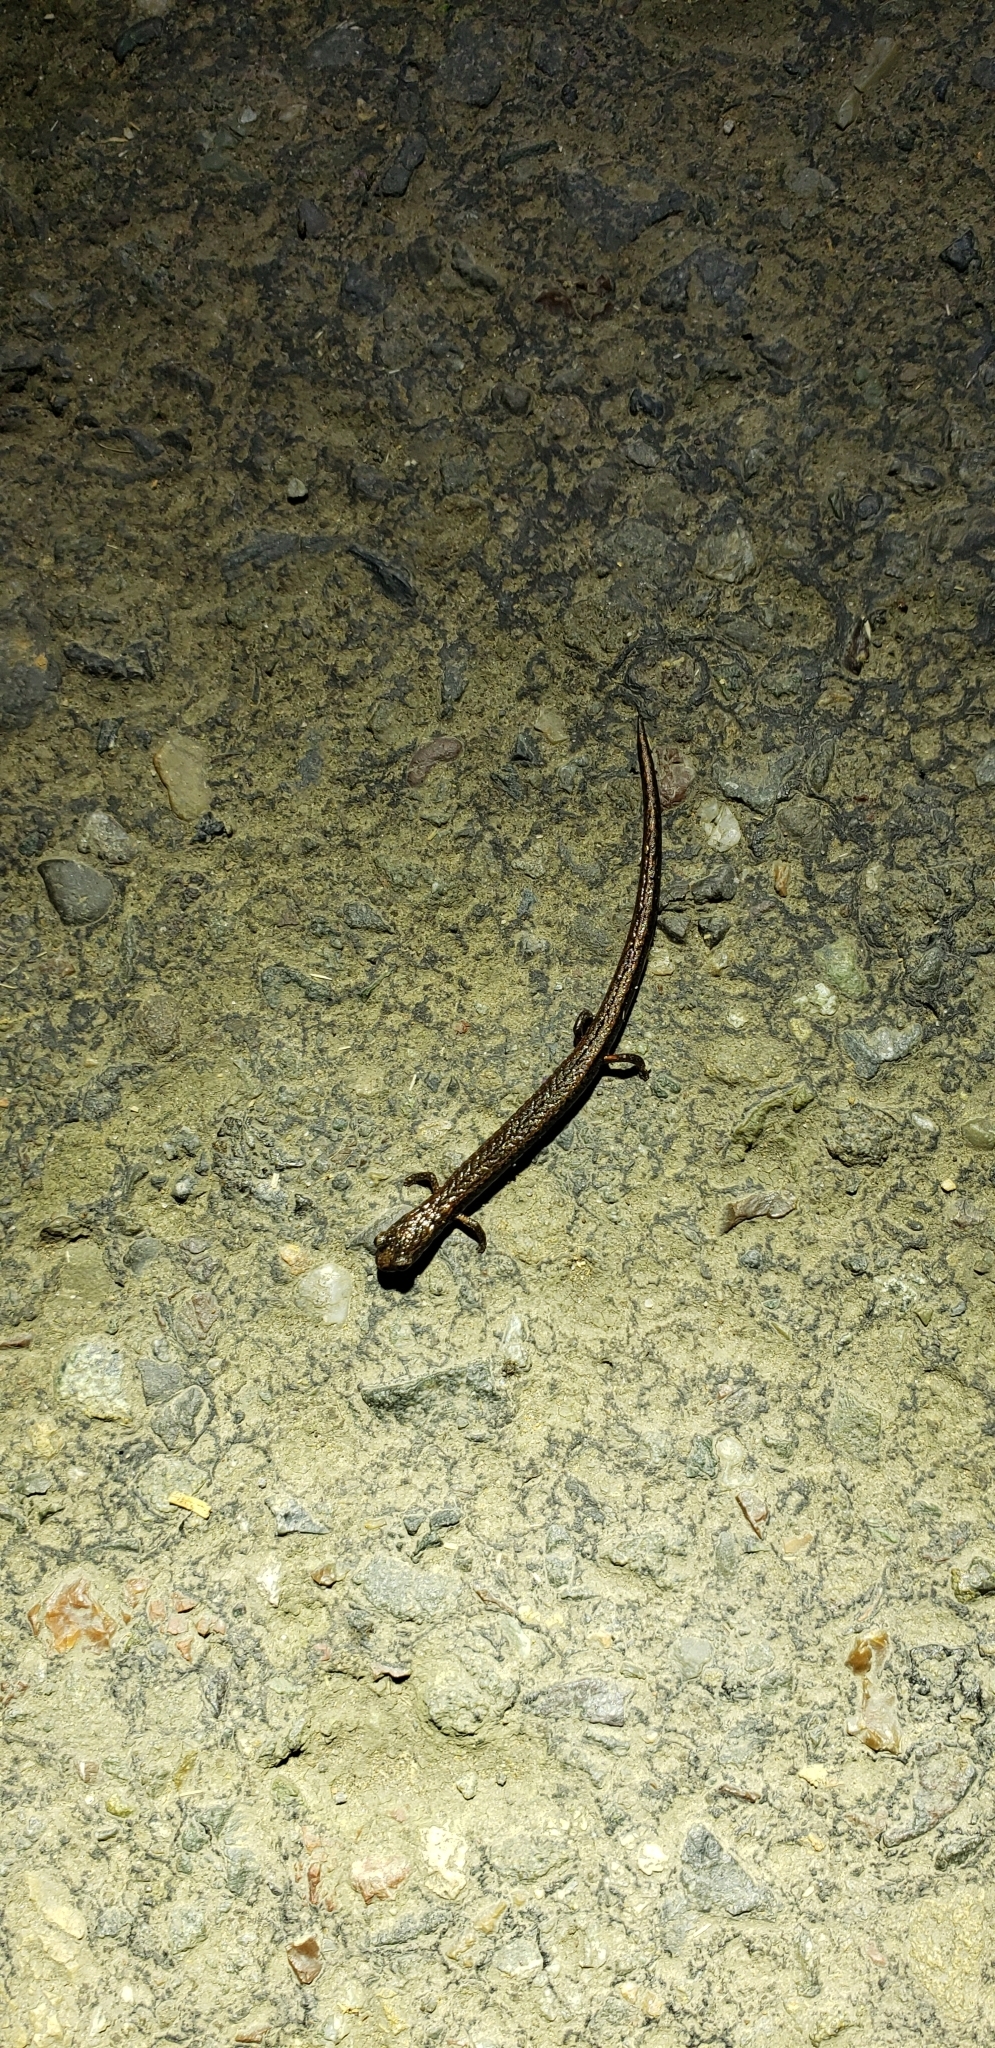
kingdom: Animalia
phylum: Chordata
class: Amphibia
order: Caudata
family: Plethodontidae
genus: Batrachoseps
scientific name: Batrachoseps attenuatus
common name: California slender salamander
